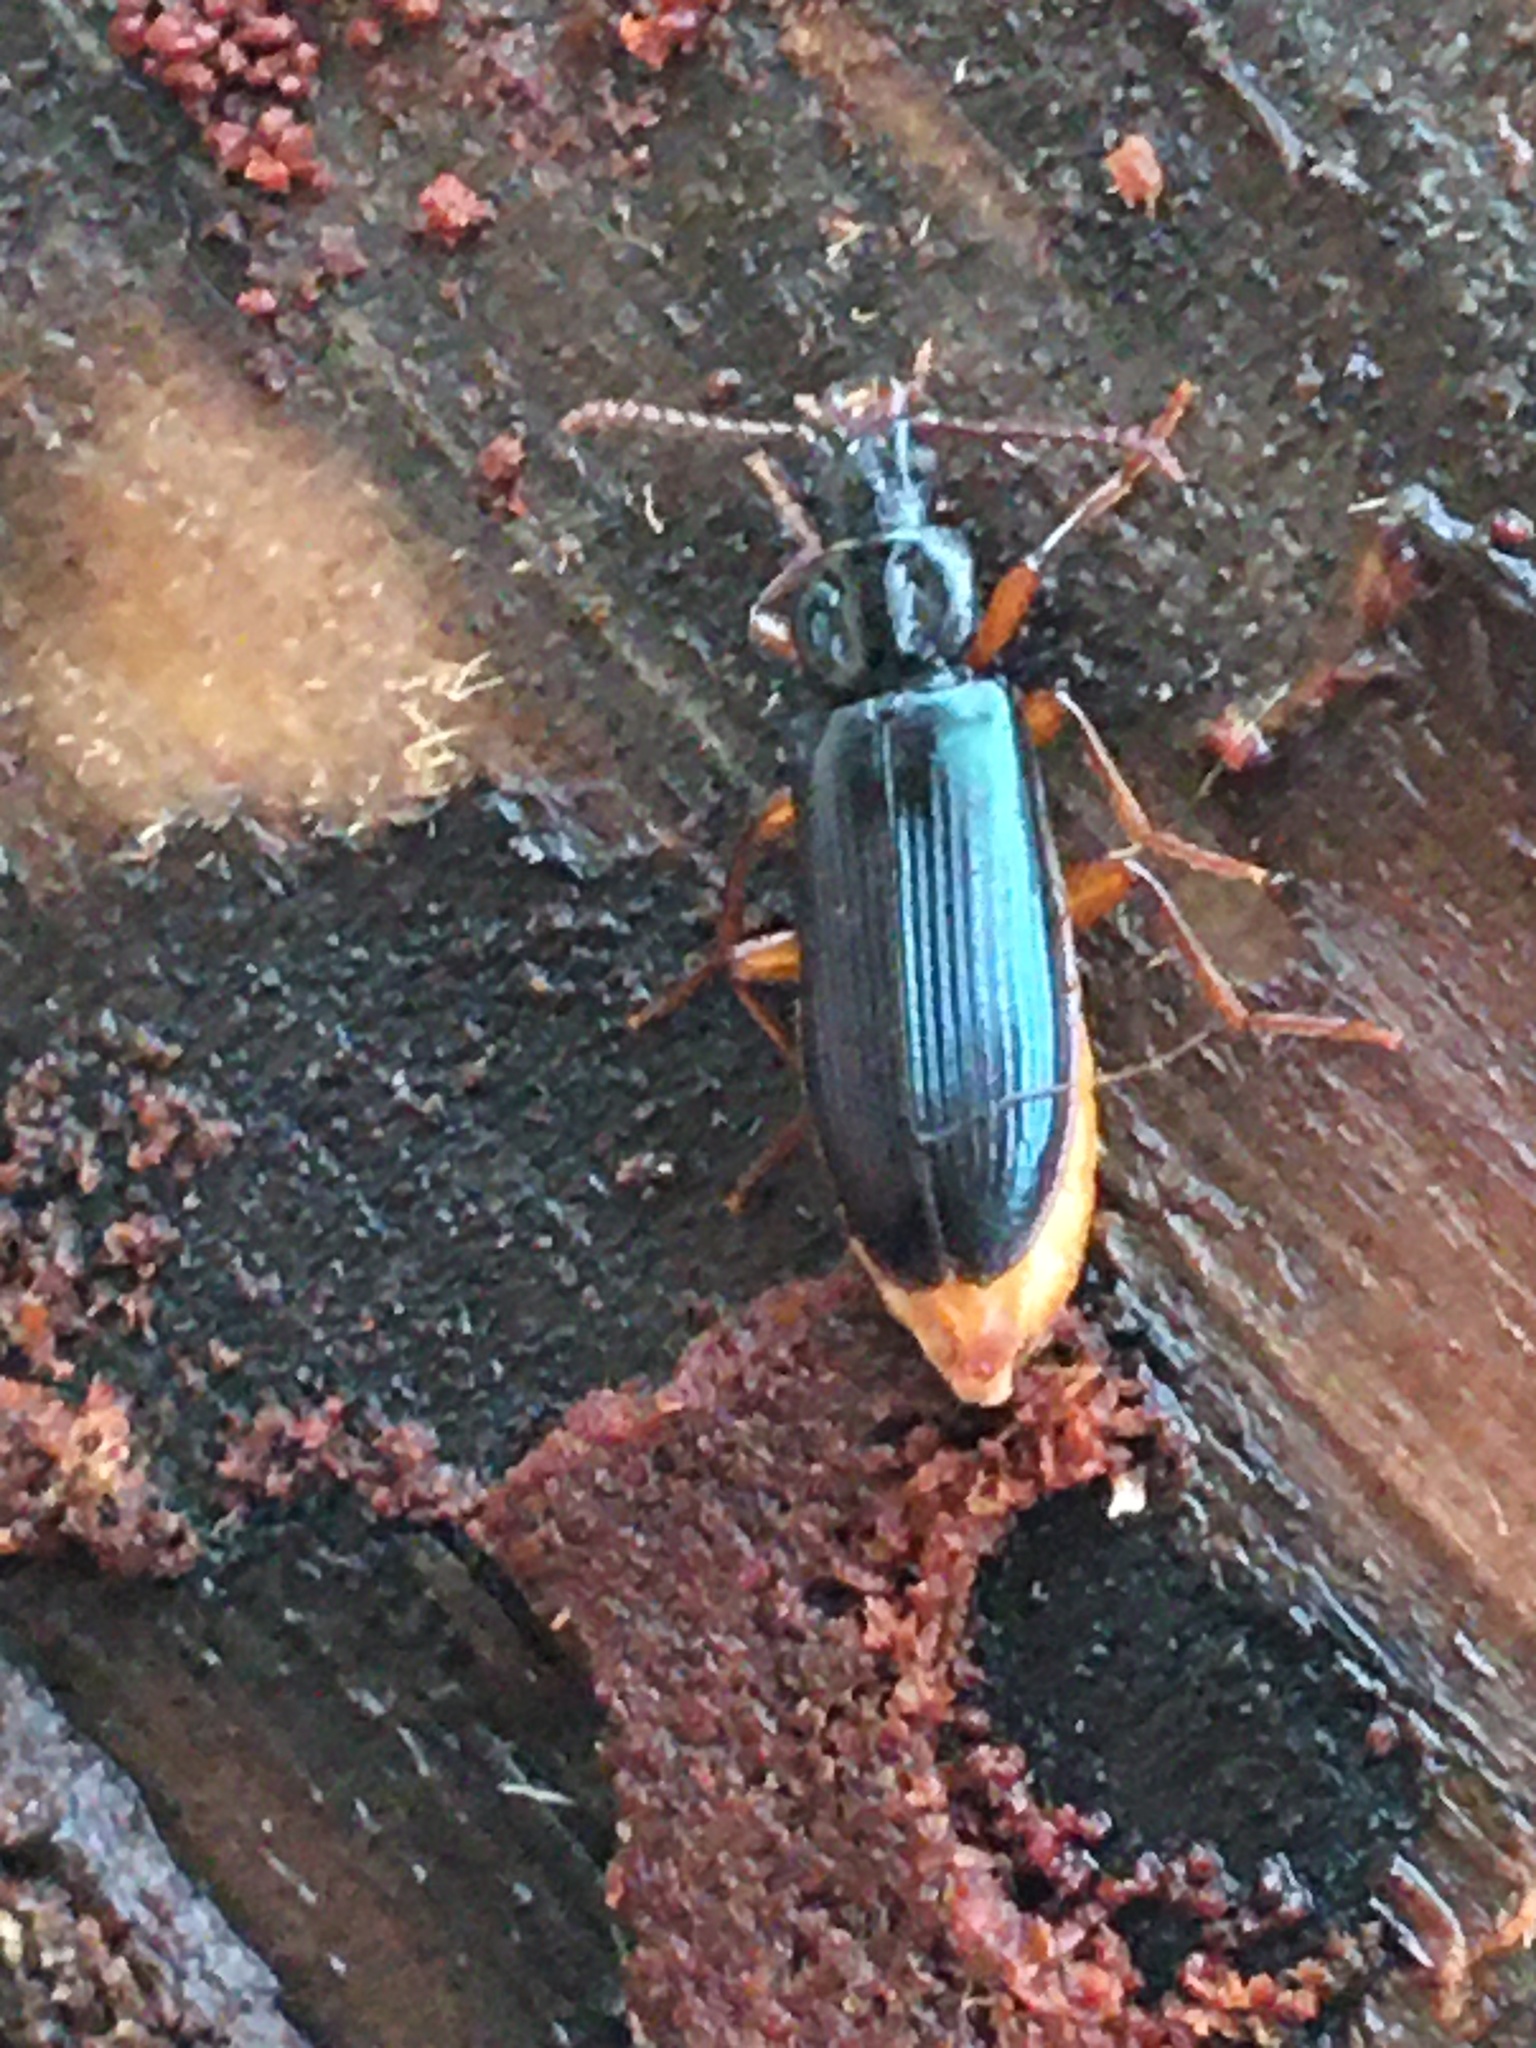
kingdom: Animalia
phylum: Arthropoda
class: Insecta
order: Coleoptera
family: Pythidae
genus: Pytho
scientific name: Pytho americanus
